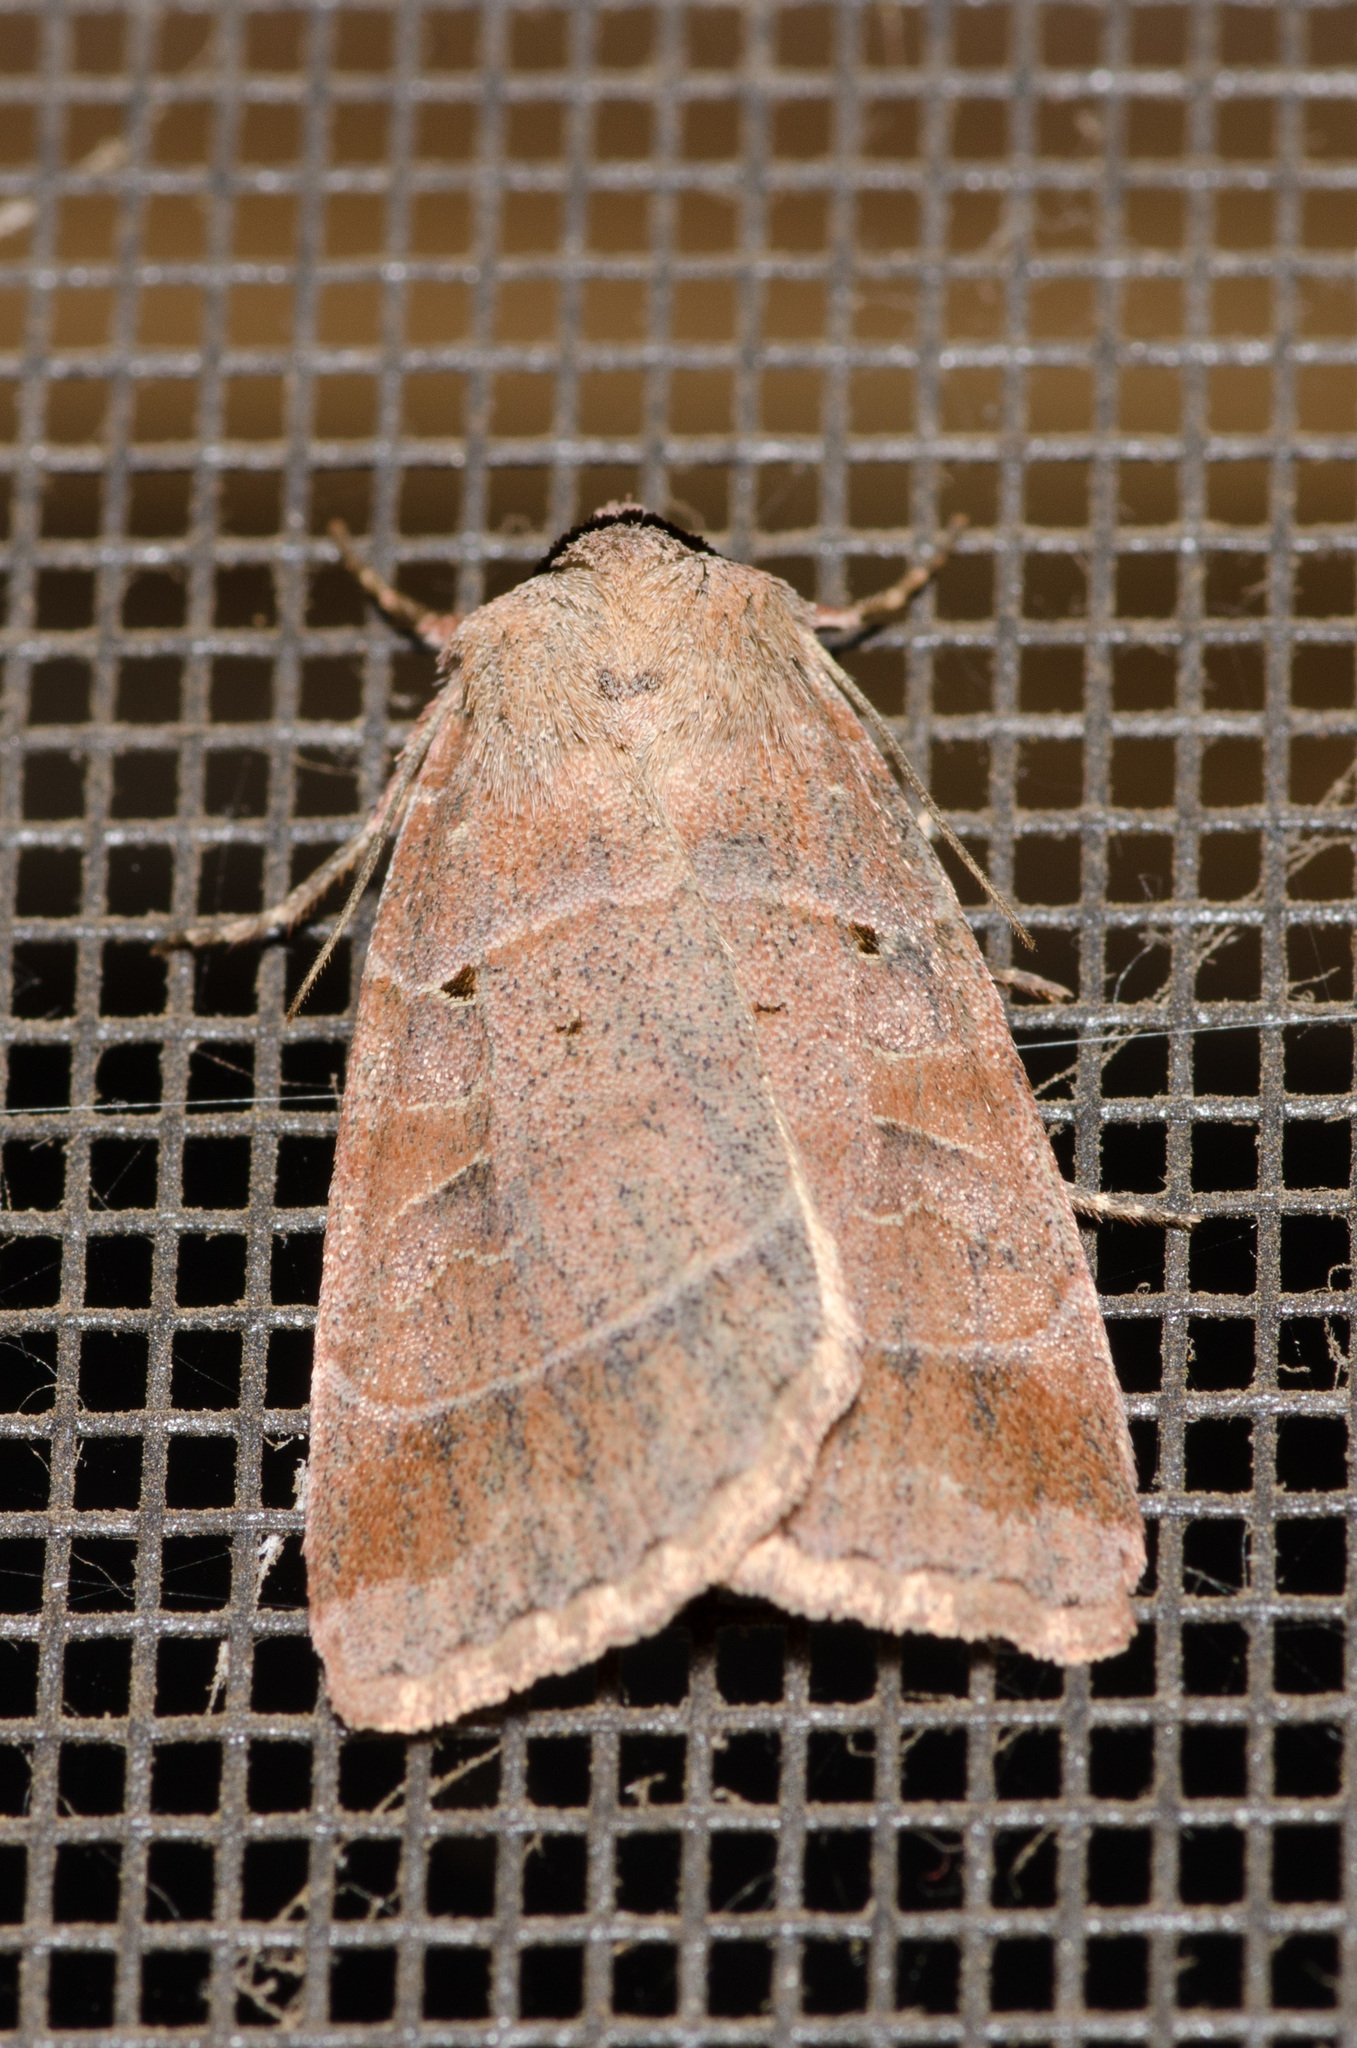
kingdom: Animalia
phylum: Arthropoda
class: Insecta
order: Lepidoptera
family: Noctuidae
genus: Agnorisma
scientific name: Agnorisma badinodis
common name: Pale-banded dart
